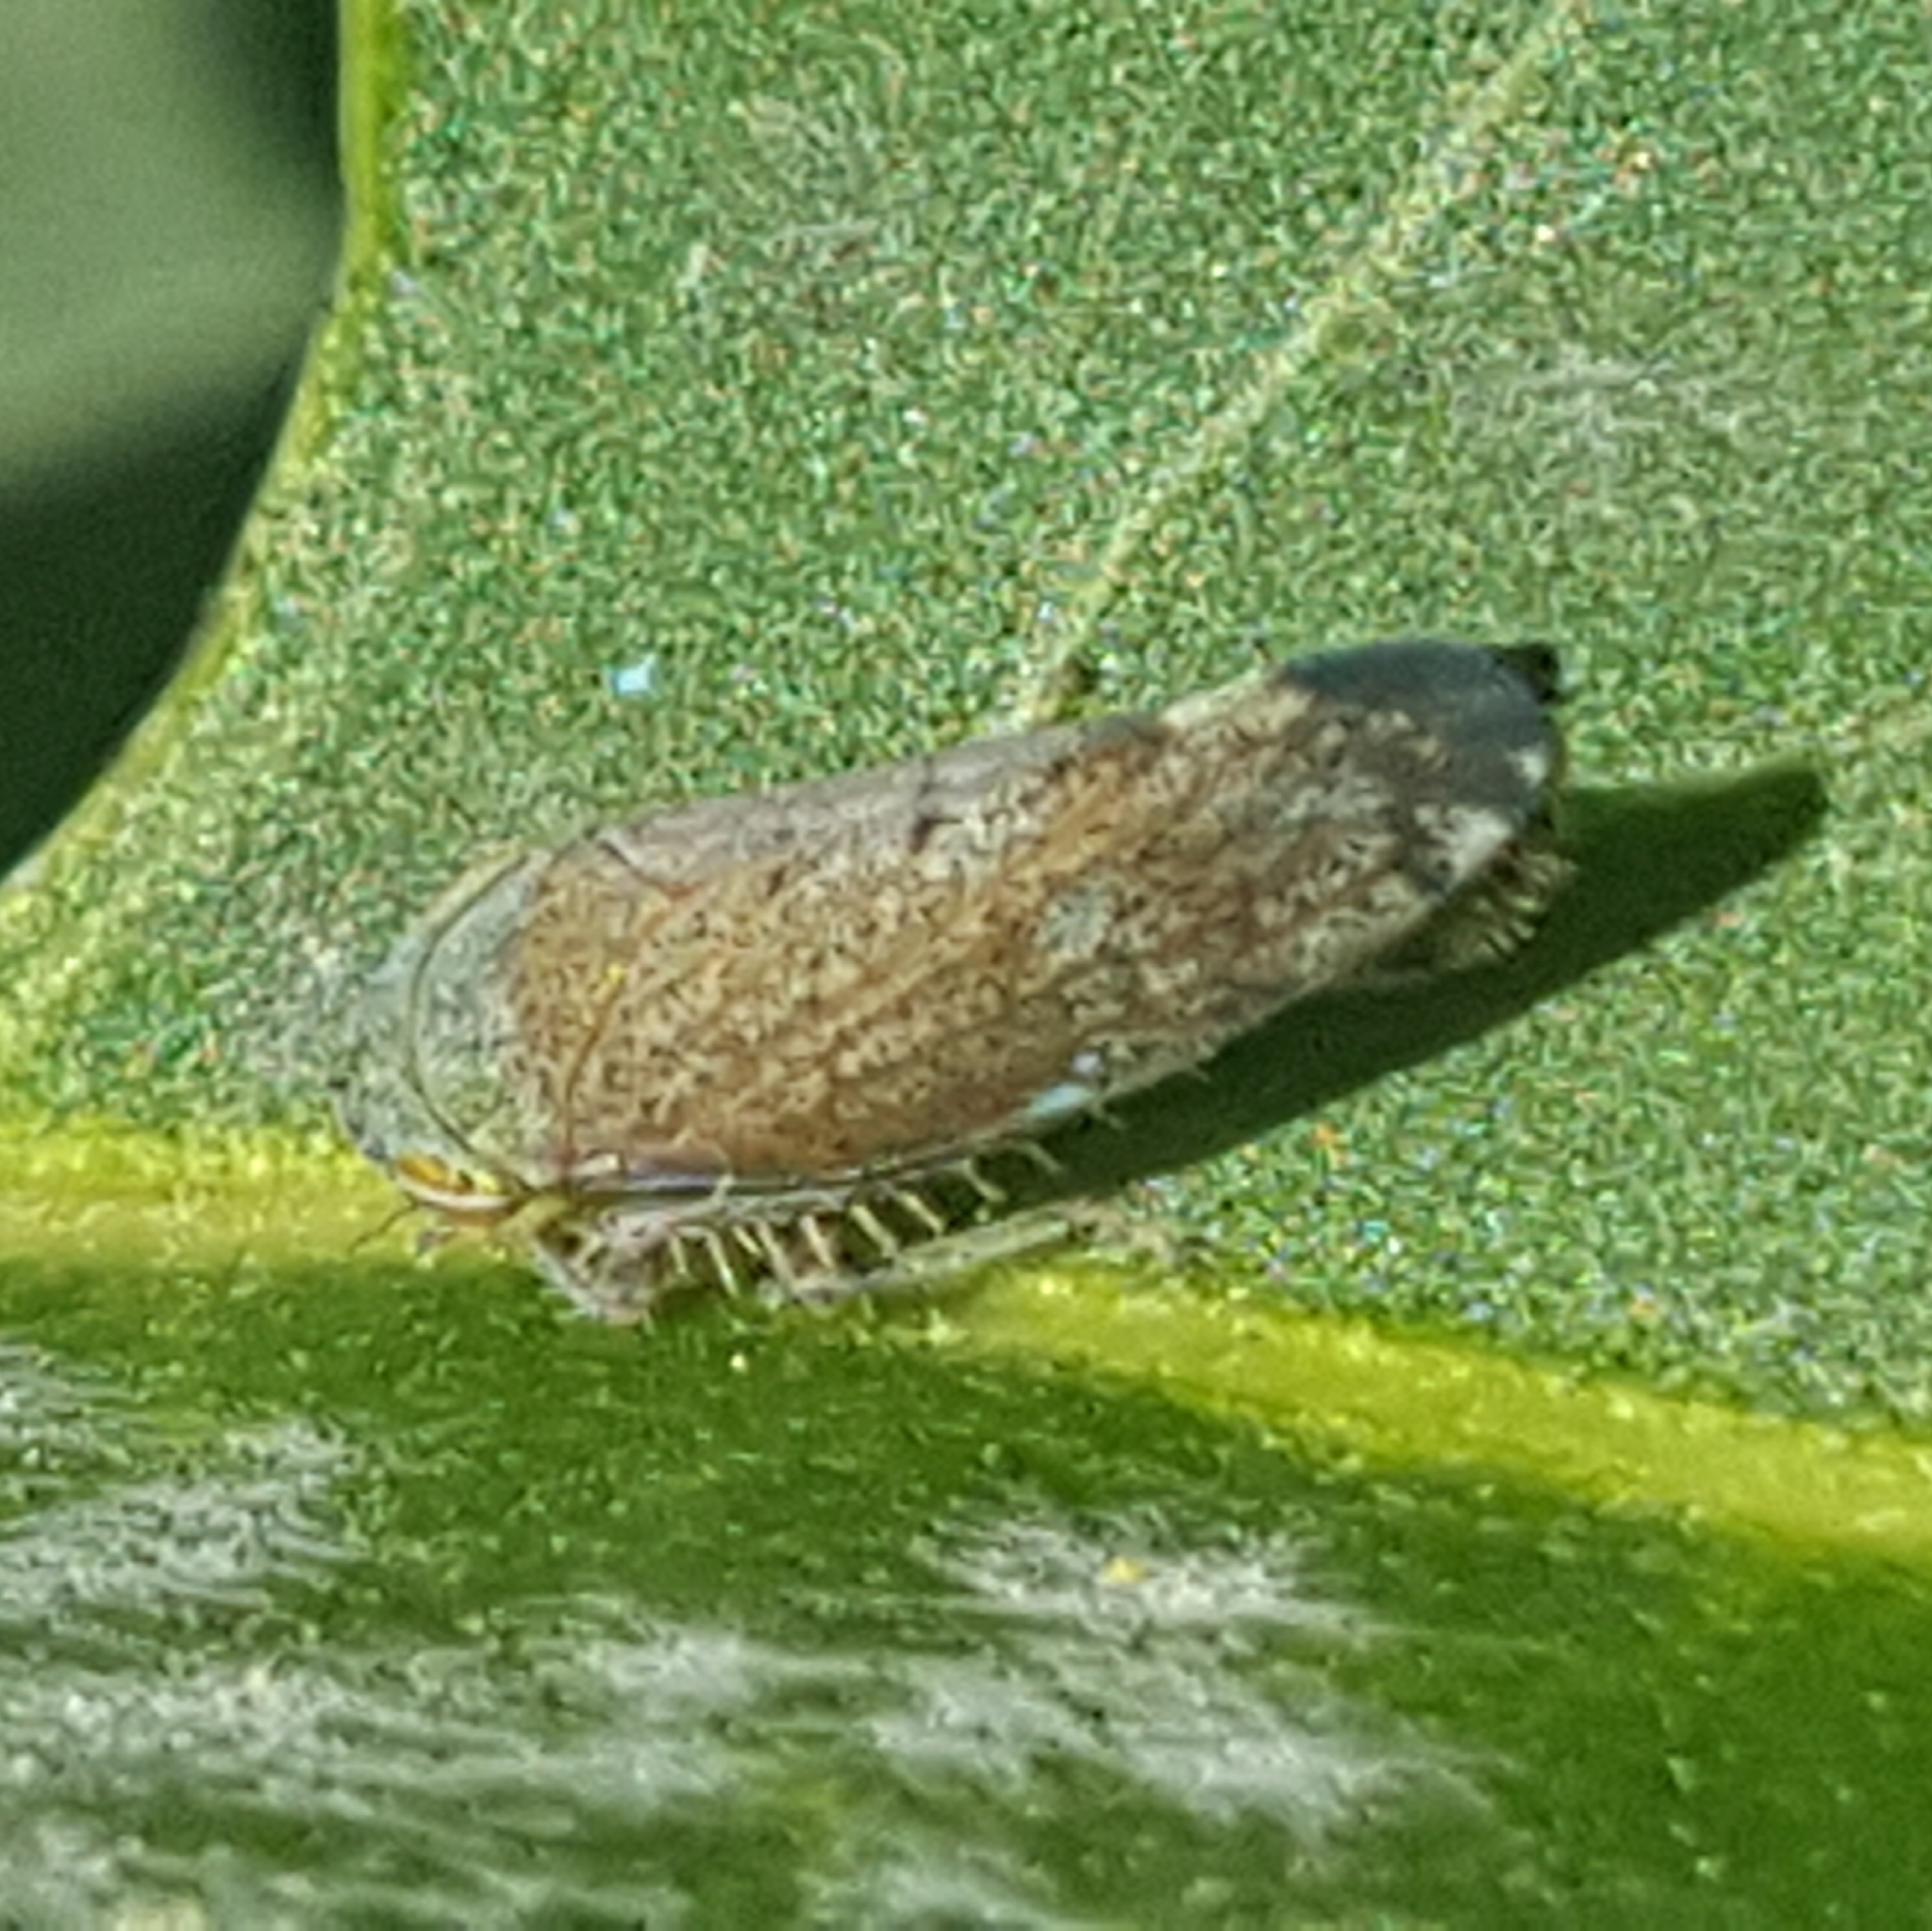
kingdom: Animalia
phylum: Arthropoda
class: Insecta
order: Hemiptera
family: Cicadellidae
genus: Fieberiella
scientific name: Fieberiella florii
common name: Flor’s leafhopper
